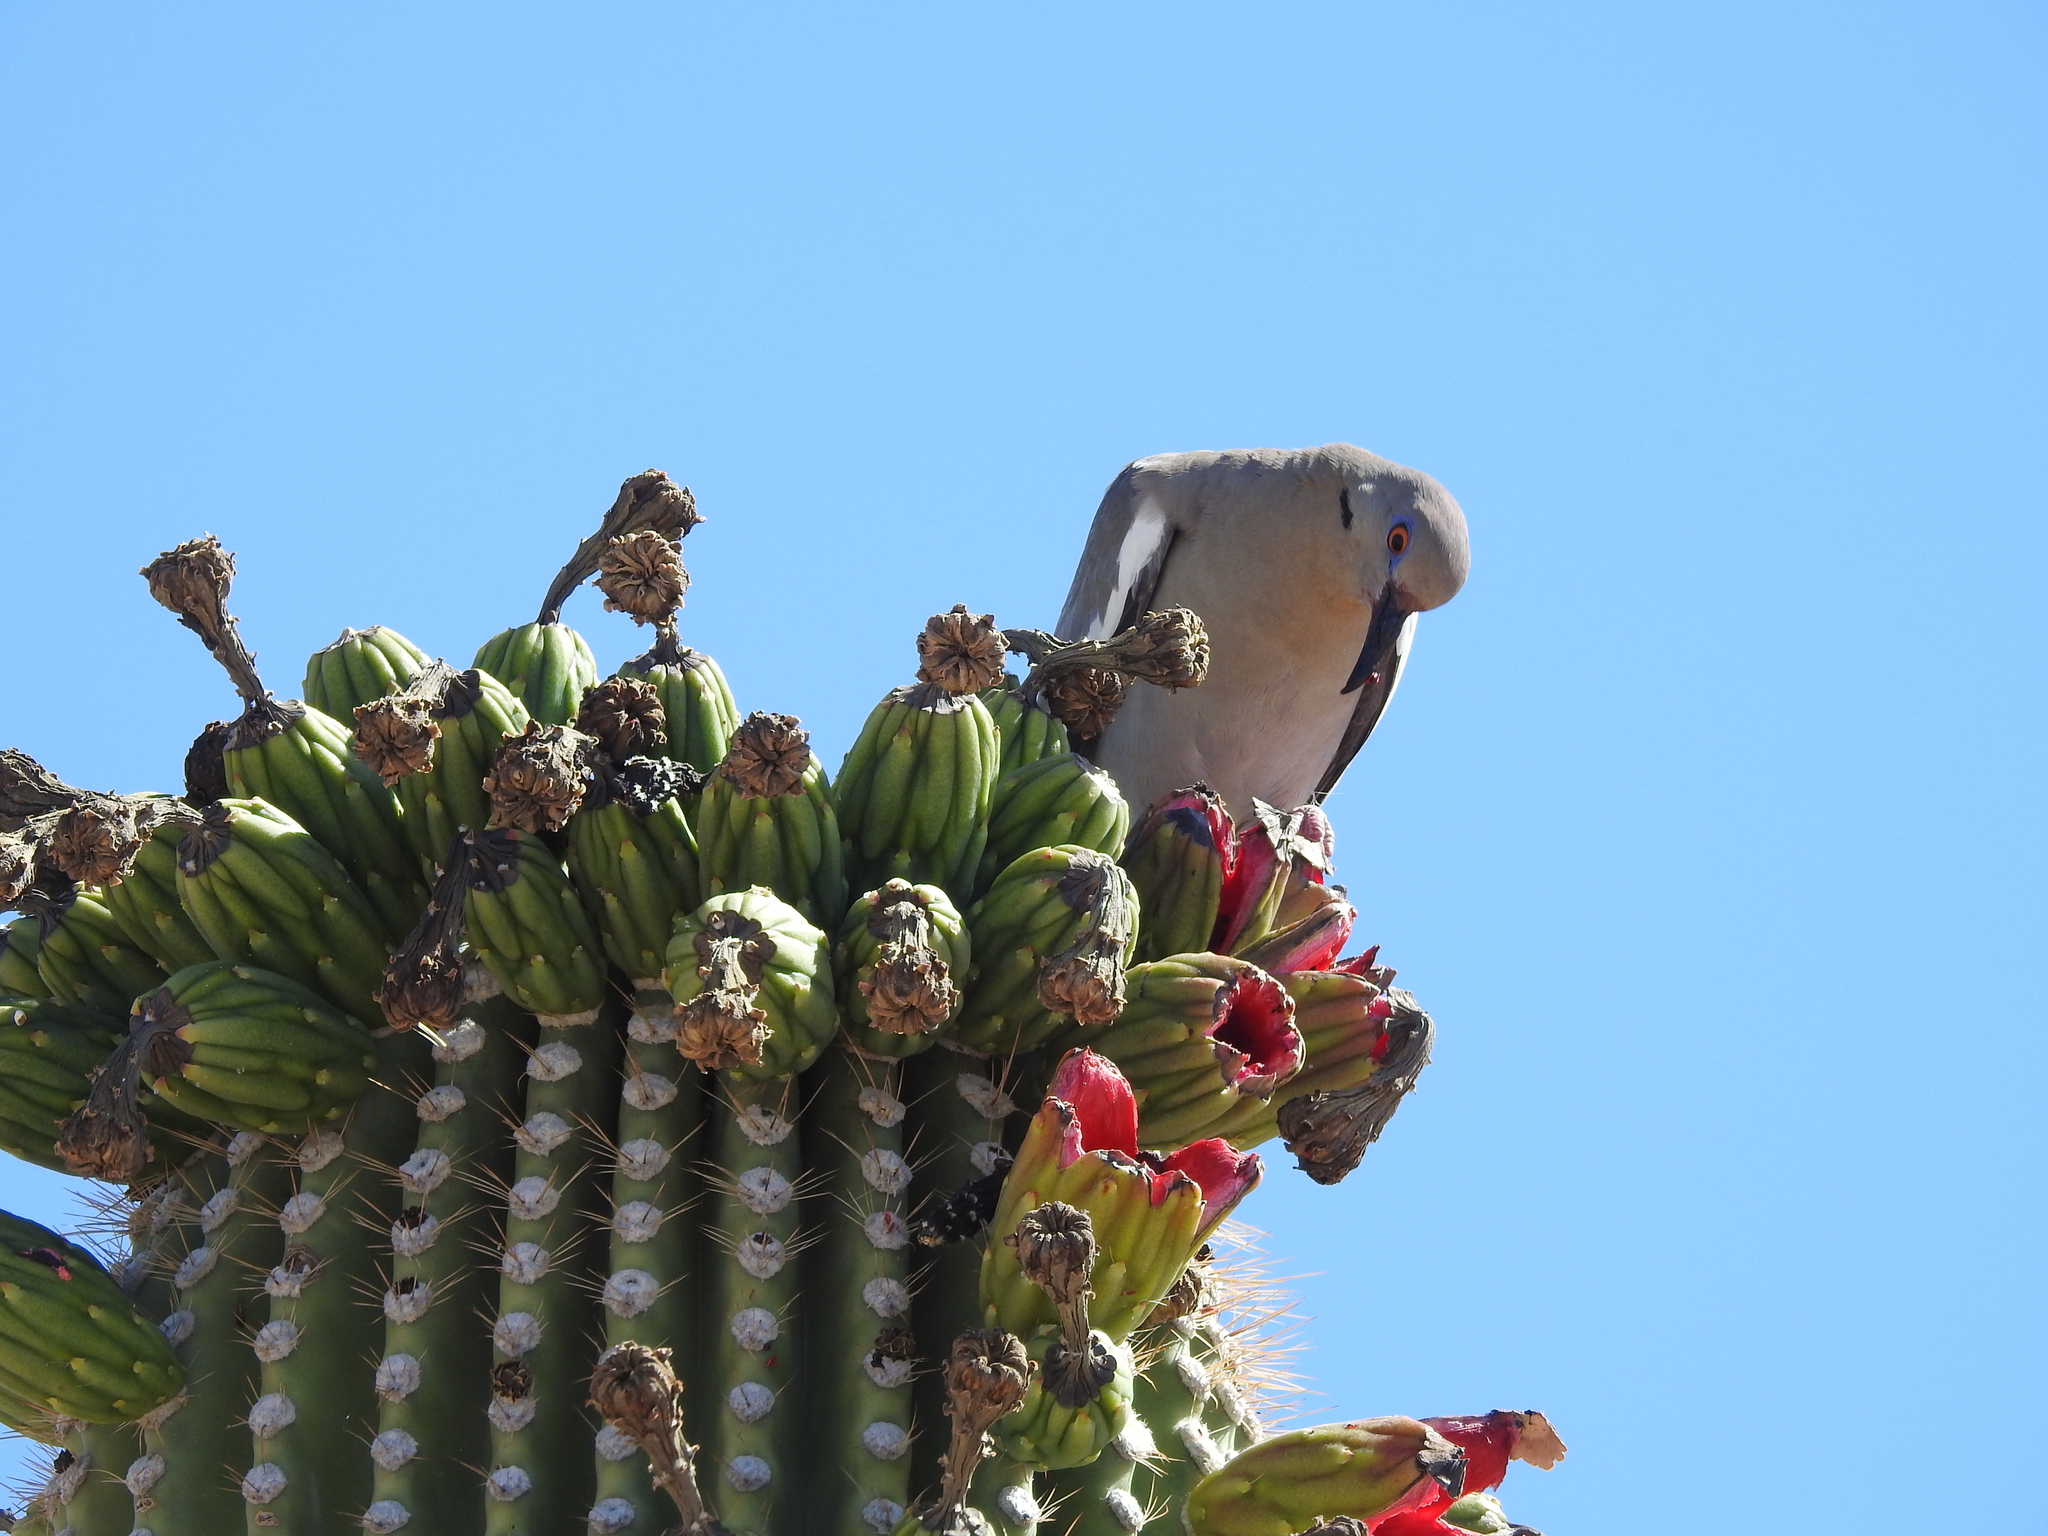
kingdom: Animalia
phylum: Chordata
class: Aves
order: Columbiformes
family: Columbidae
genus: Zenaida
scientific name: Zenaida asiatica
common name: White-winged dove
